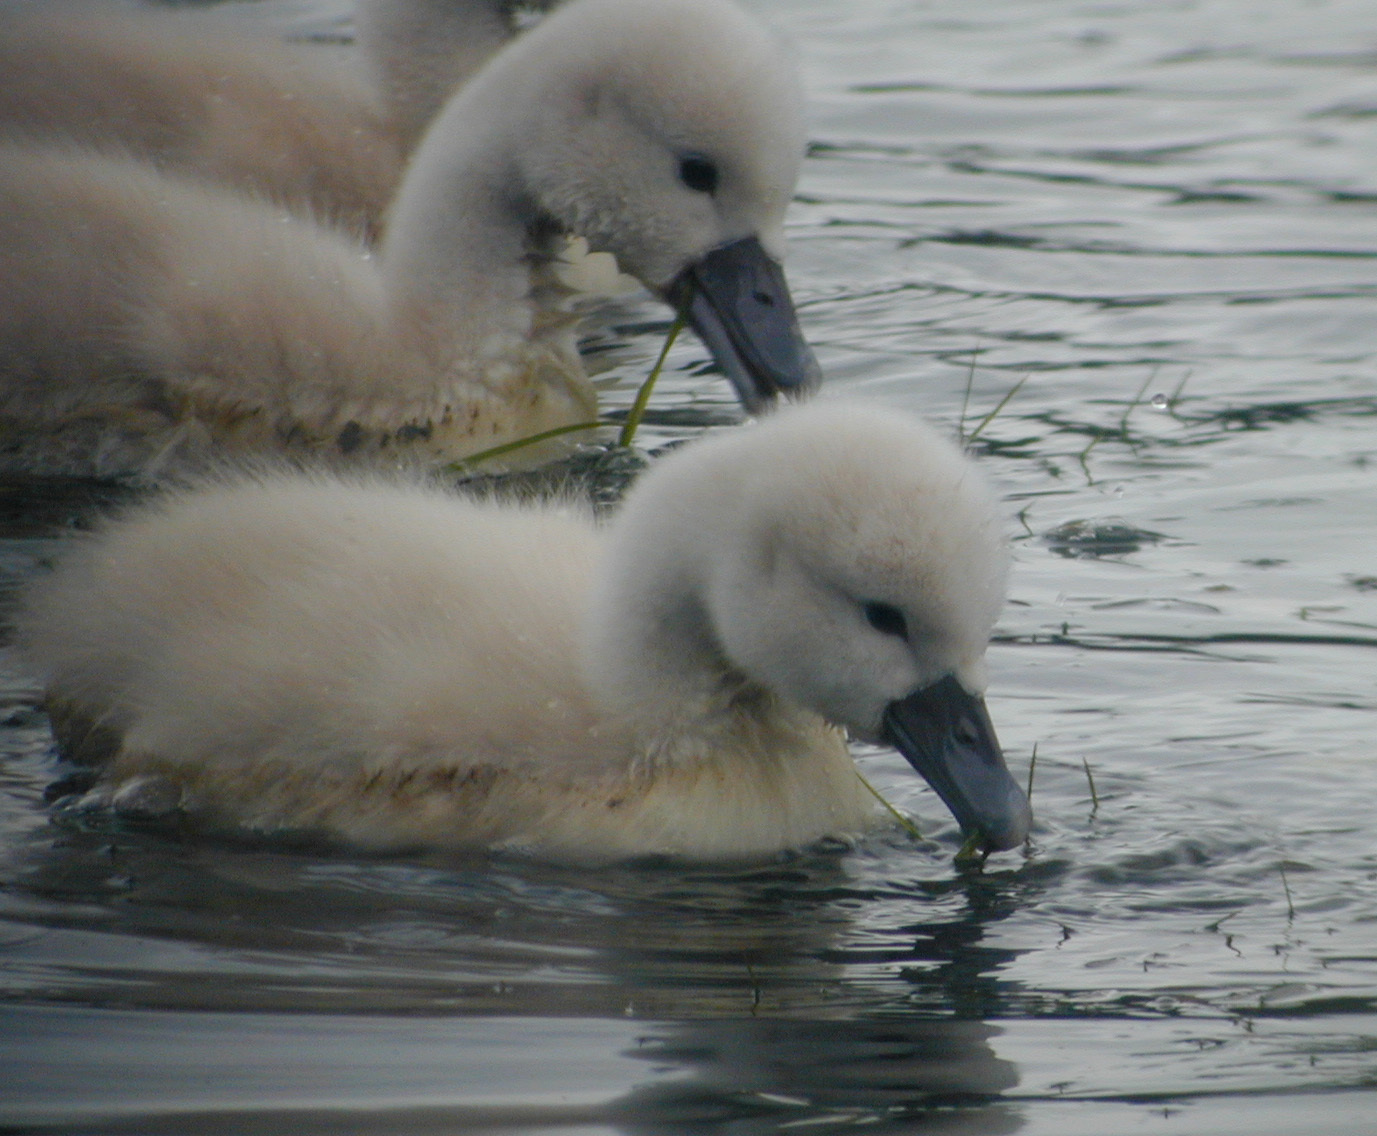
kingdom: Animalia
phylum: Chordata
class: Aves
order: Anseriformes
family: Anatidae
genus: Cygnus
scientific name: Cygnus olor
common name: Mute swan
